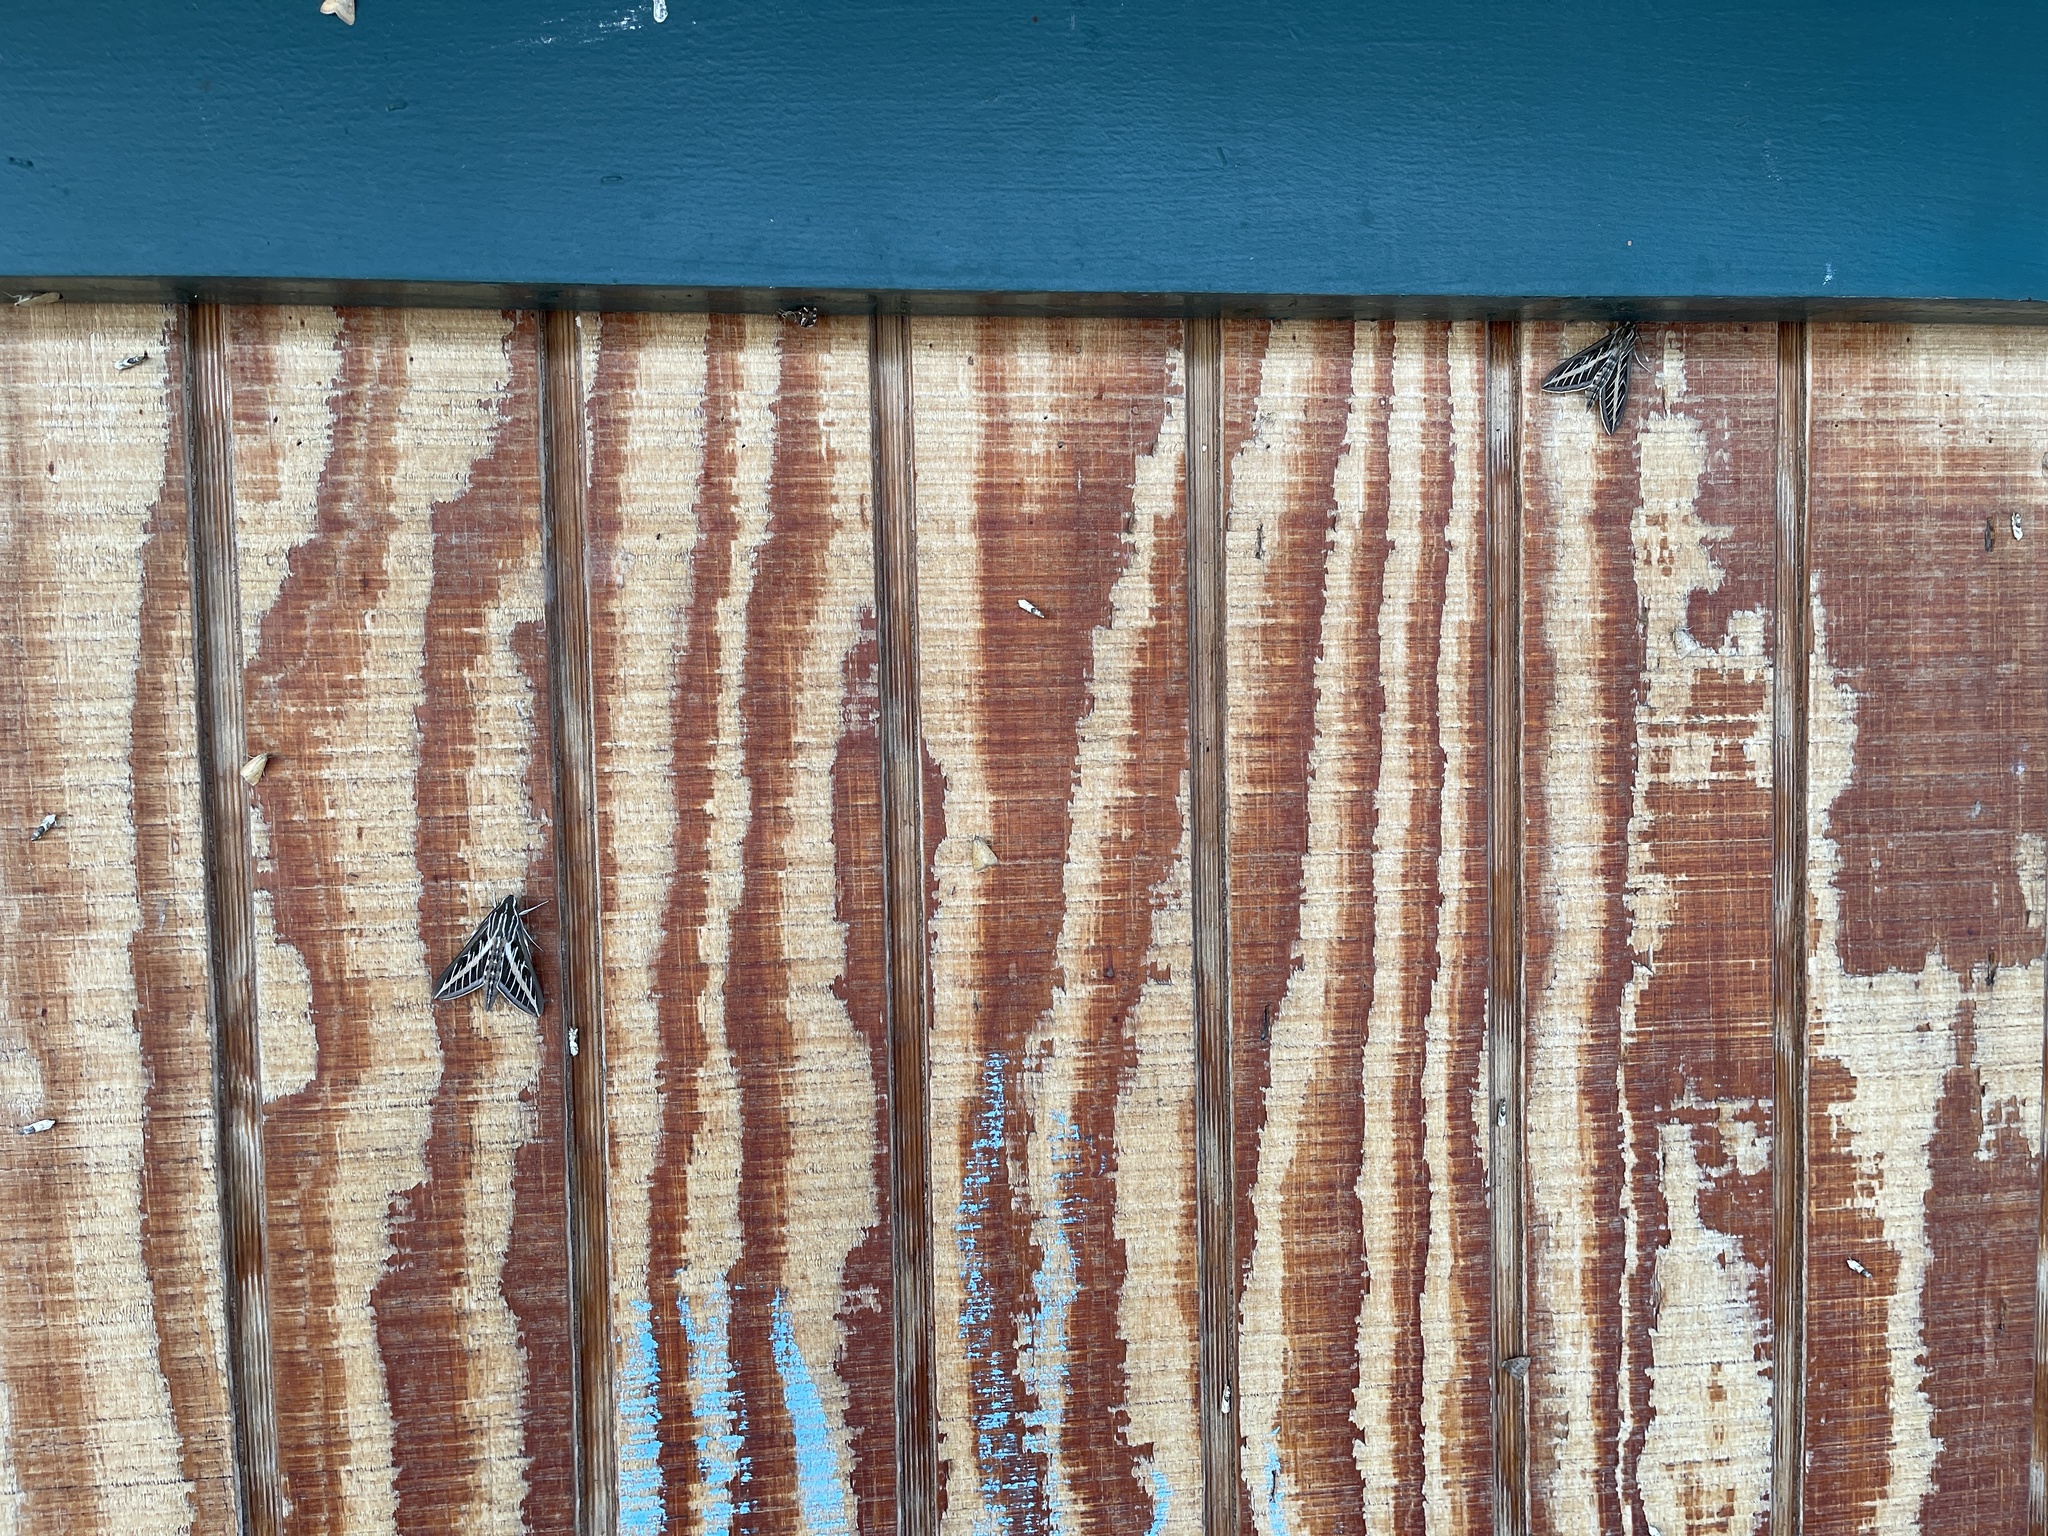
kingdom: Animalia
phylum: Arthropoda
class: Insecta
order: Lepidoptera
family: Sphingidae
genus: Hyles
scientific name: Hyles lineata
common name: White-lined sphinx
